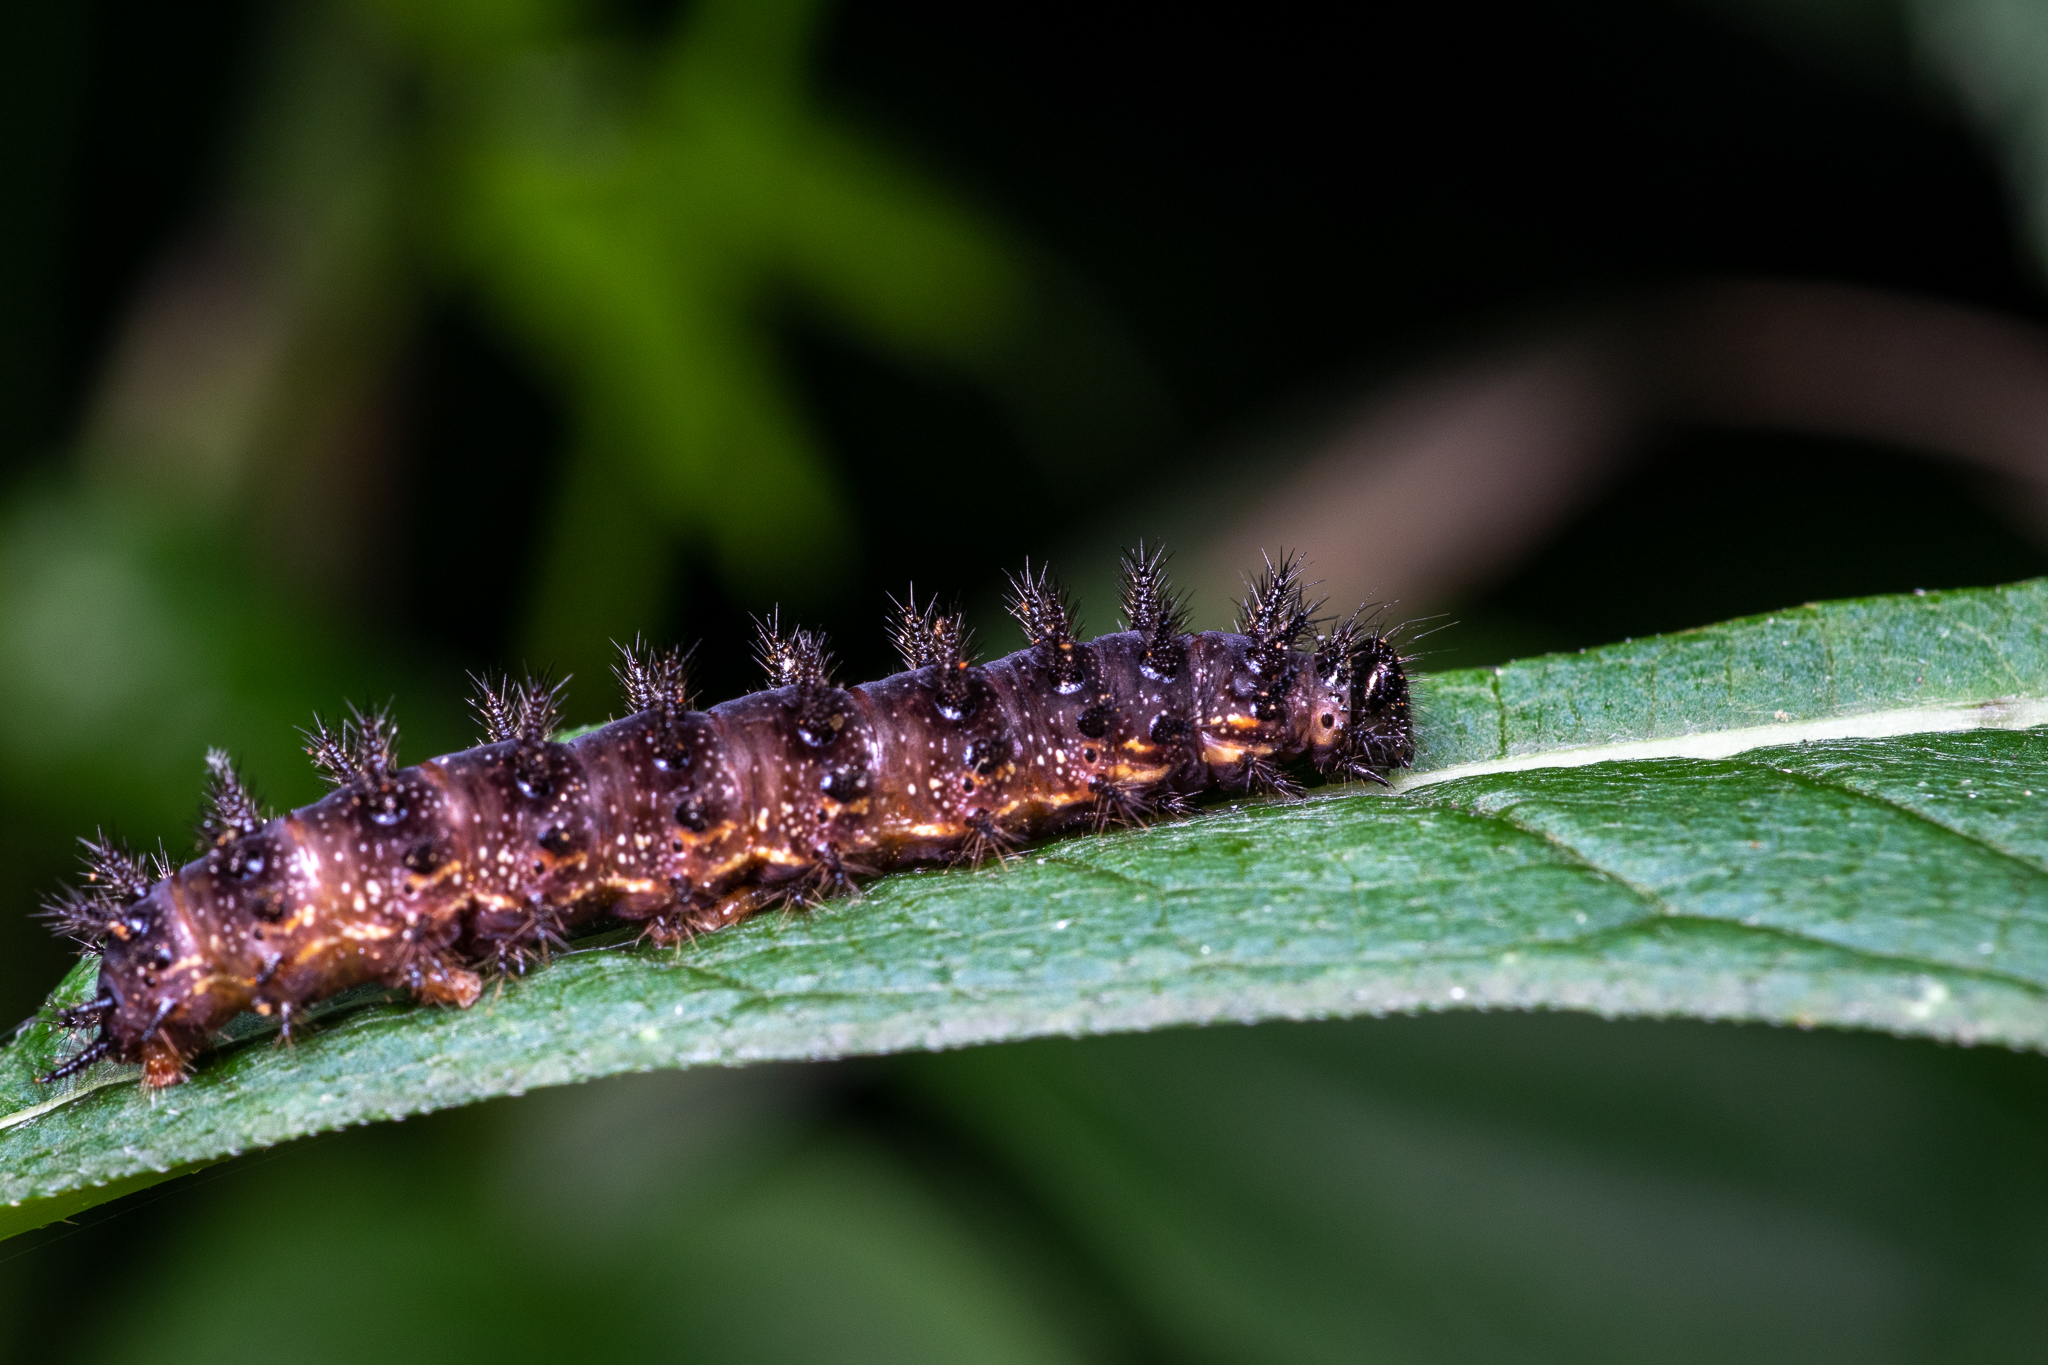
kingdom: Animalia
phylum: Arthropoda
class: Insecta
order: Lepidoptera
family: Nymphalidae
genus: Chlosyne
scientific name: Chlosyne nycteis
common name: Silvery checkerspot
